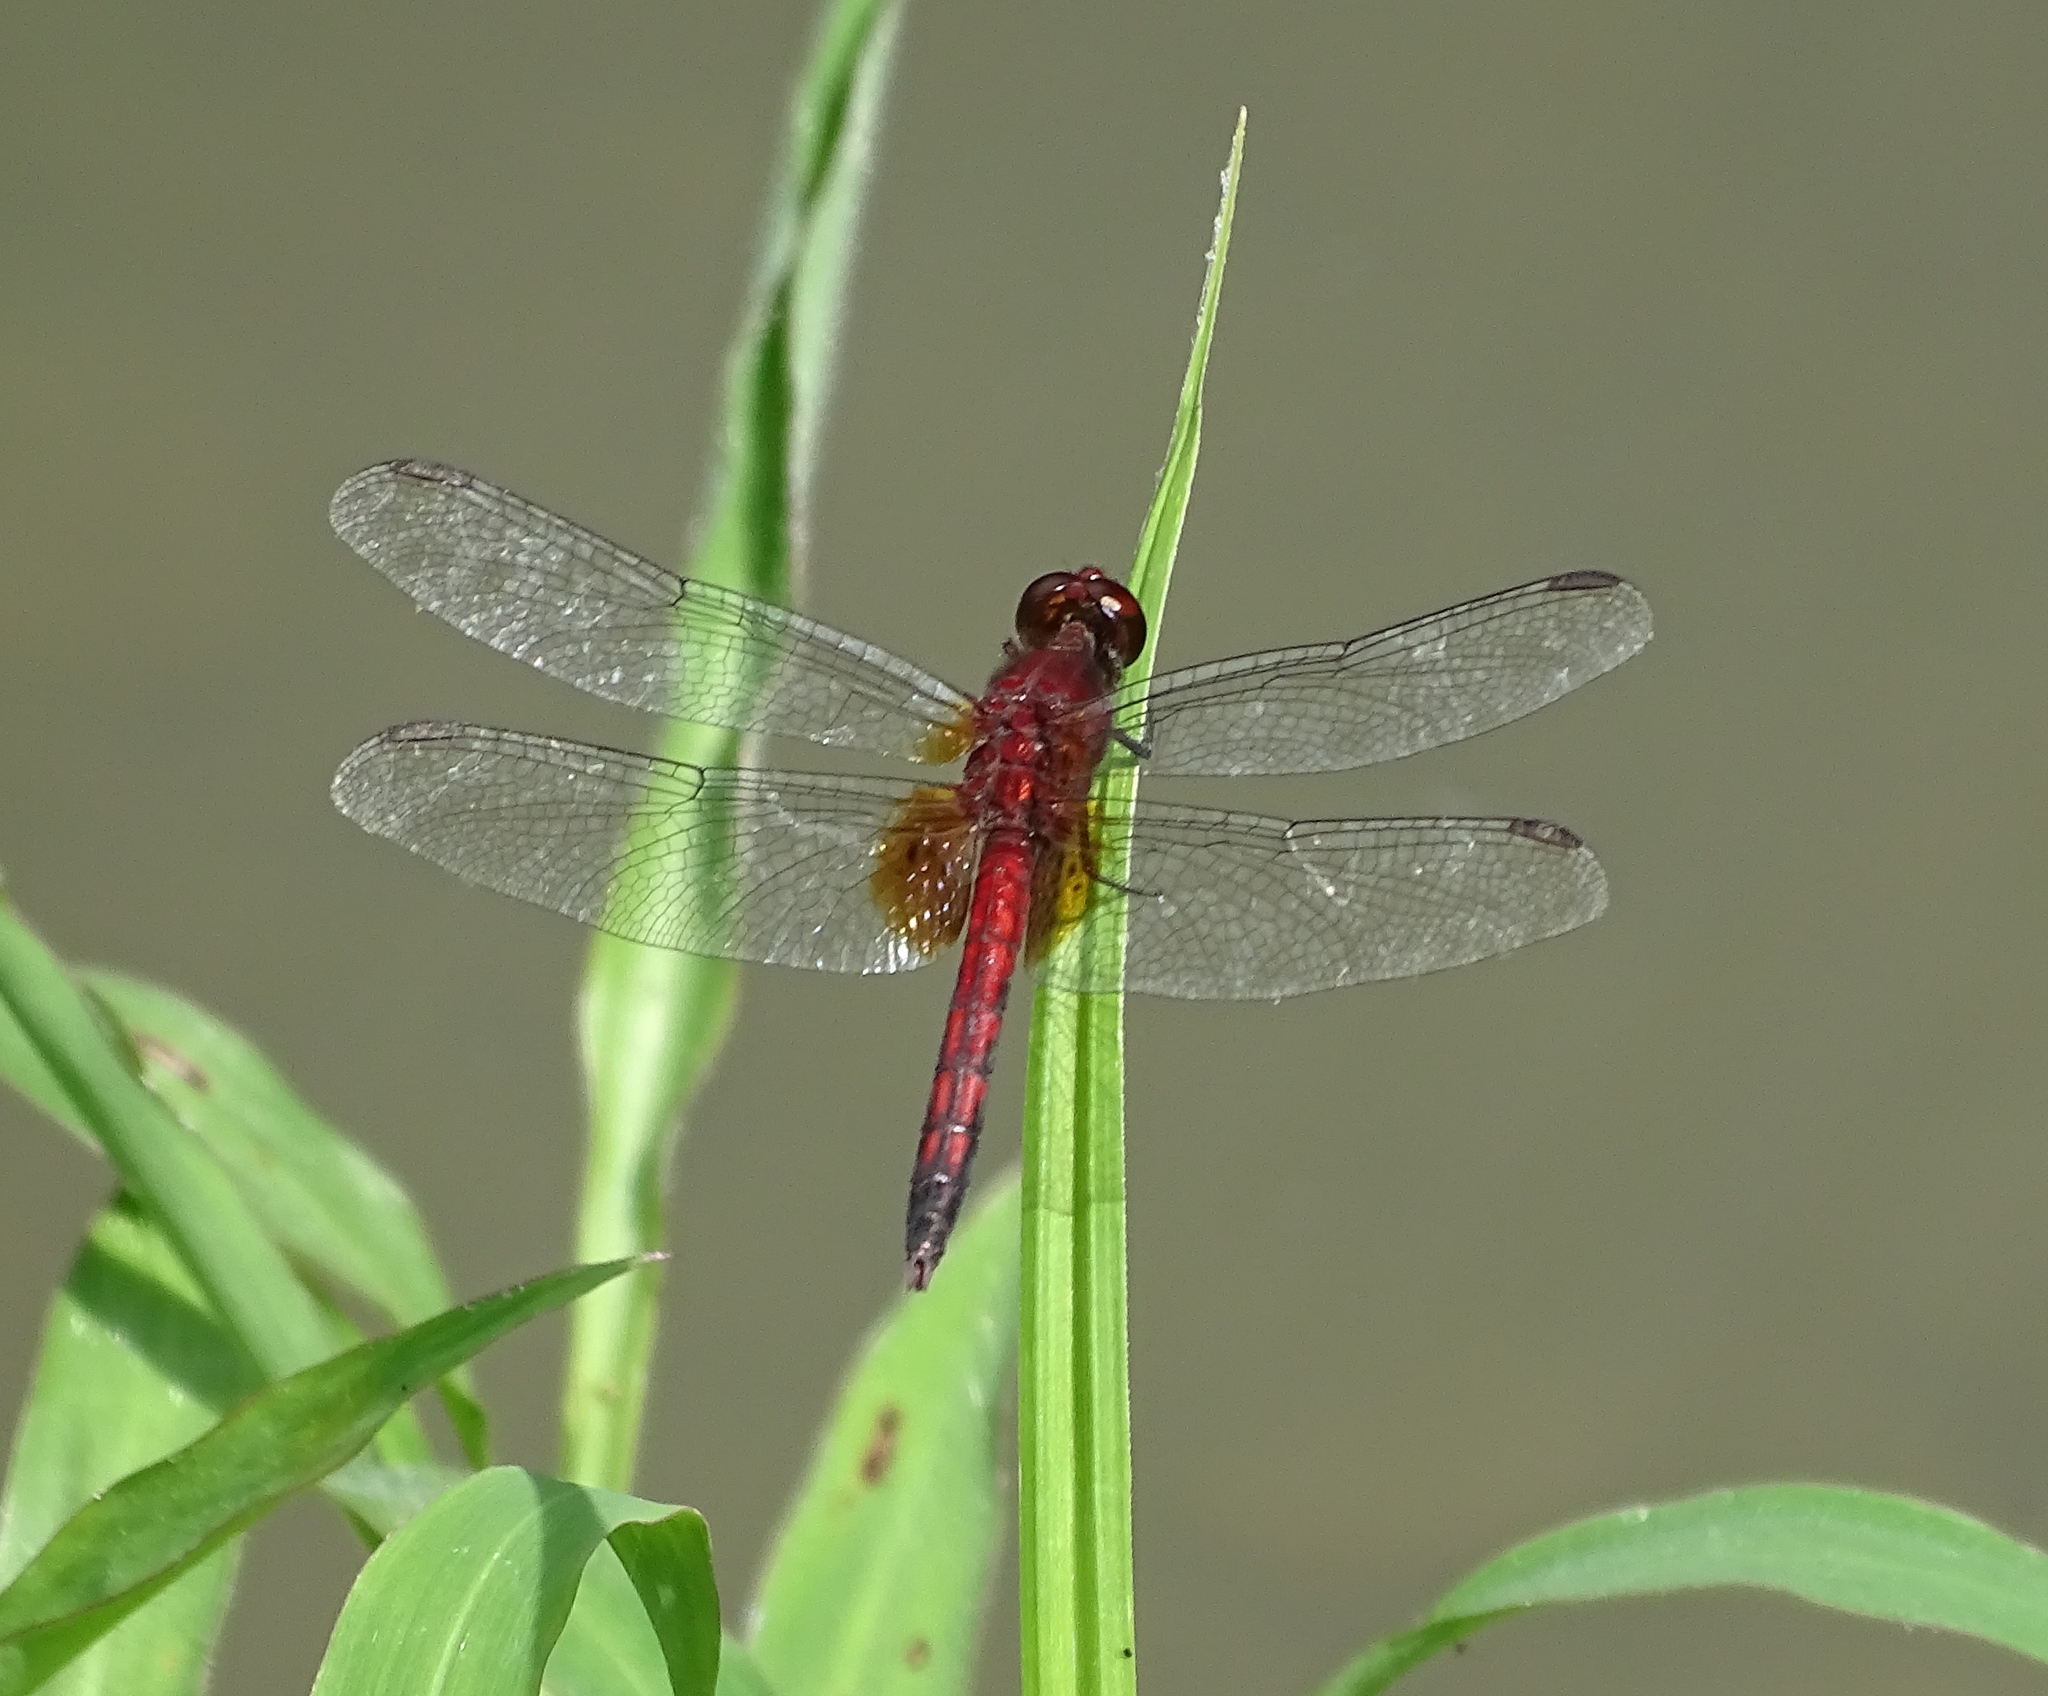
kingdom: Animalia
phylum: Arthropoda
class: Insecta
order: Odonata
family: Libellulidae
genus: Erythrodiplax
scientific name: Erythrodiplax fusca
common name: Red-faced dragonlet
